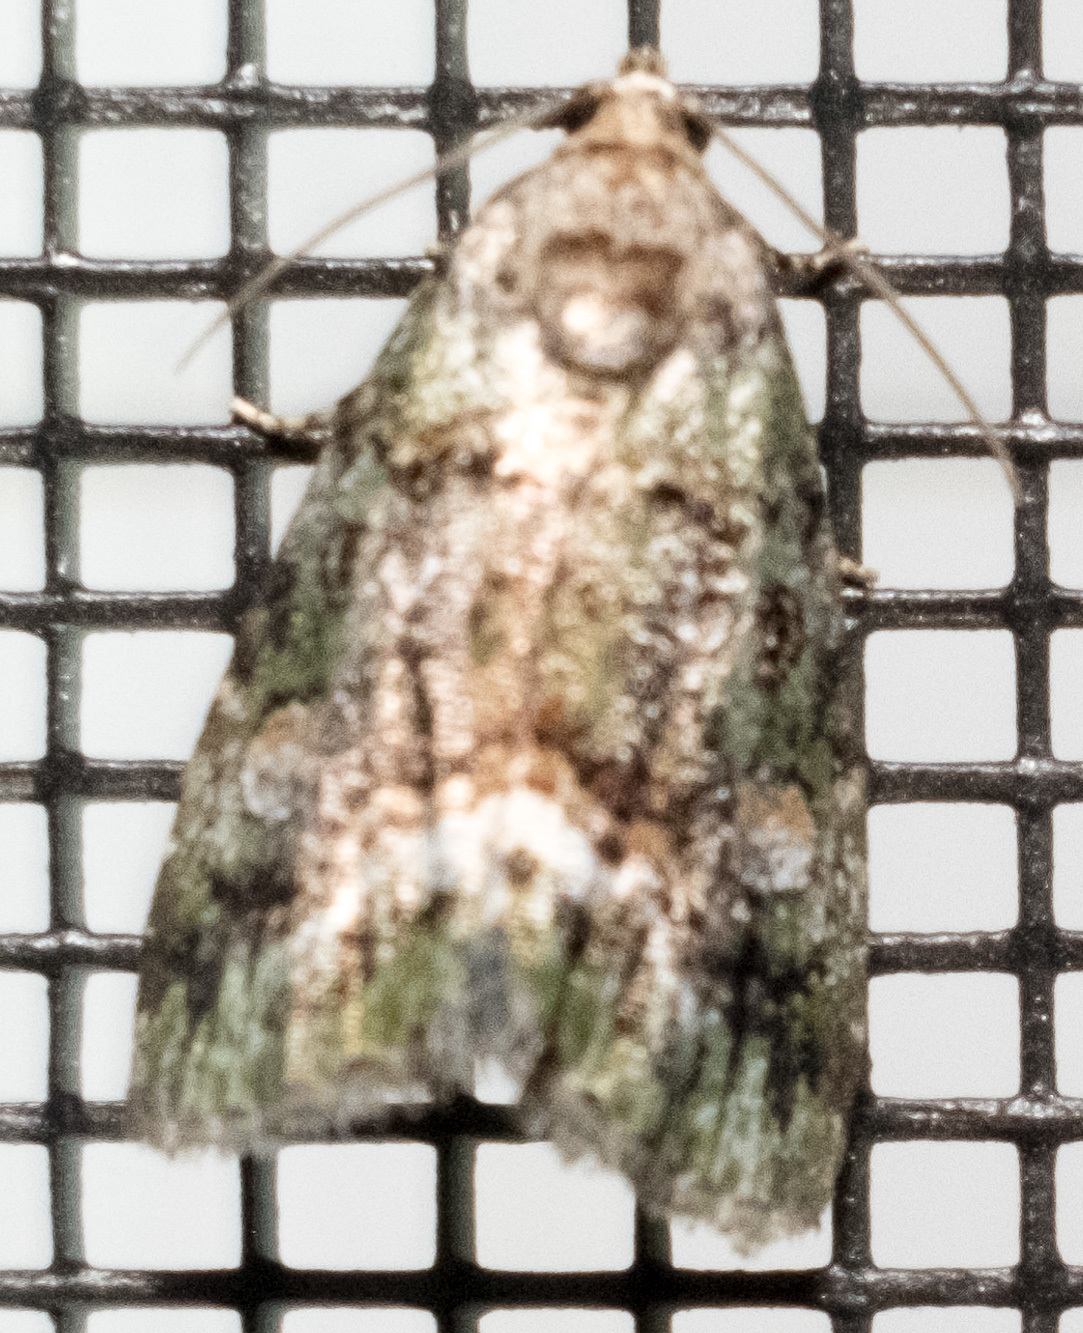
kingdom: Animalia
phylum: Arthropoda
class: Insecta
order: Lepidoptera
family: Noctuidae
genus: Lithacodia
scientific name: Lithacodia musta
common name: Small mossy glyph
